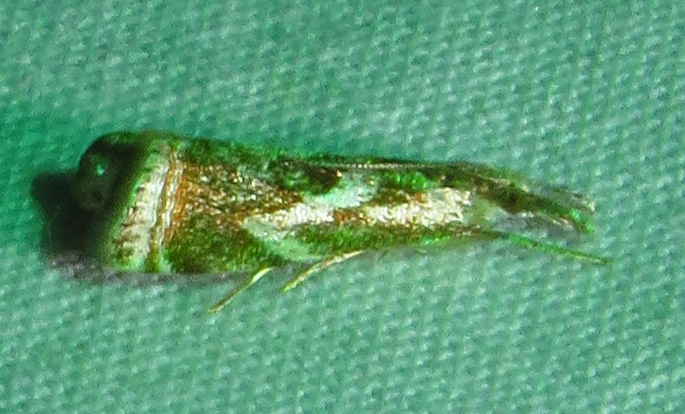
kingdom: Animalia
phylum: Arthropoda
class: Insecta
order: Lepidoptera
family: Crambidae
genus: Microcrambus
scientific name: Microcrambus elegans
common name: Elegant grass-veneer
